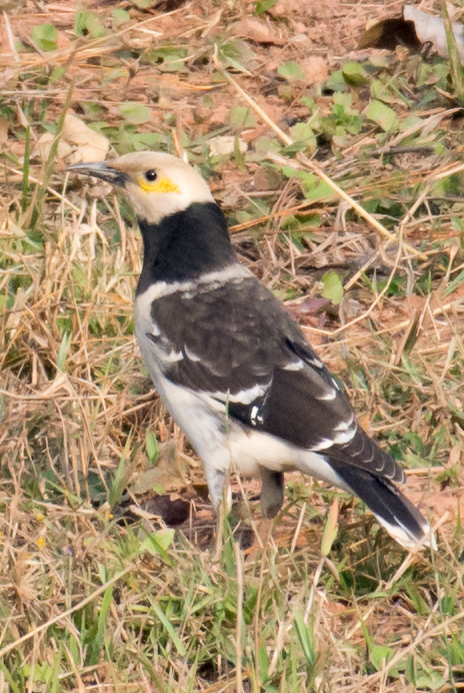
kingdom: Animalia
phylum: Chordata
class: Aves
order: Passeriformes
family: Sturnidae
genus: Gracupica
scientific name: Gracupica nigricollis
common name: Black-collared starling
